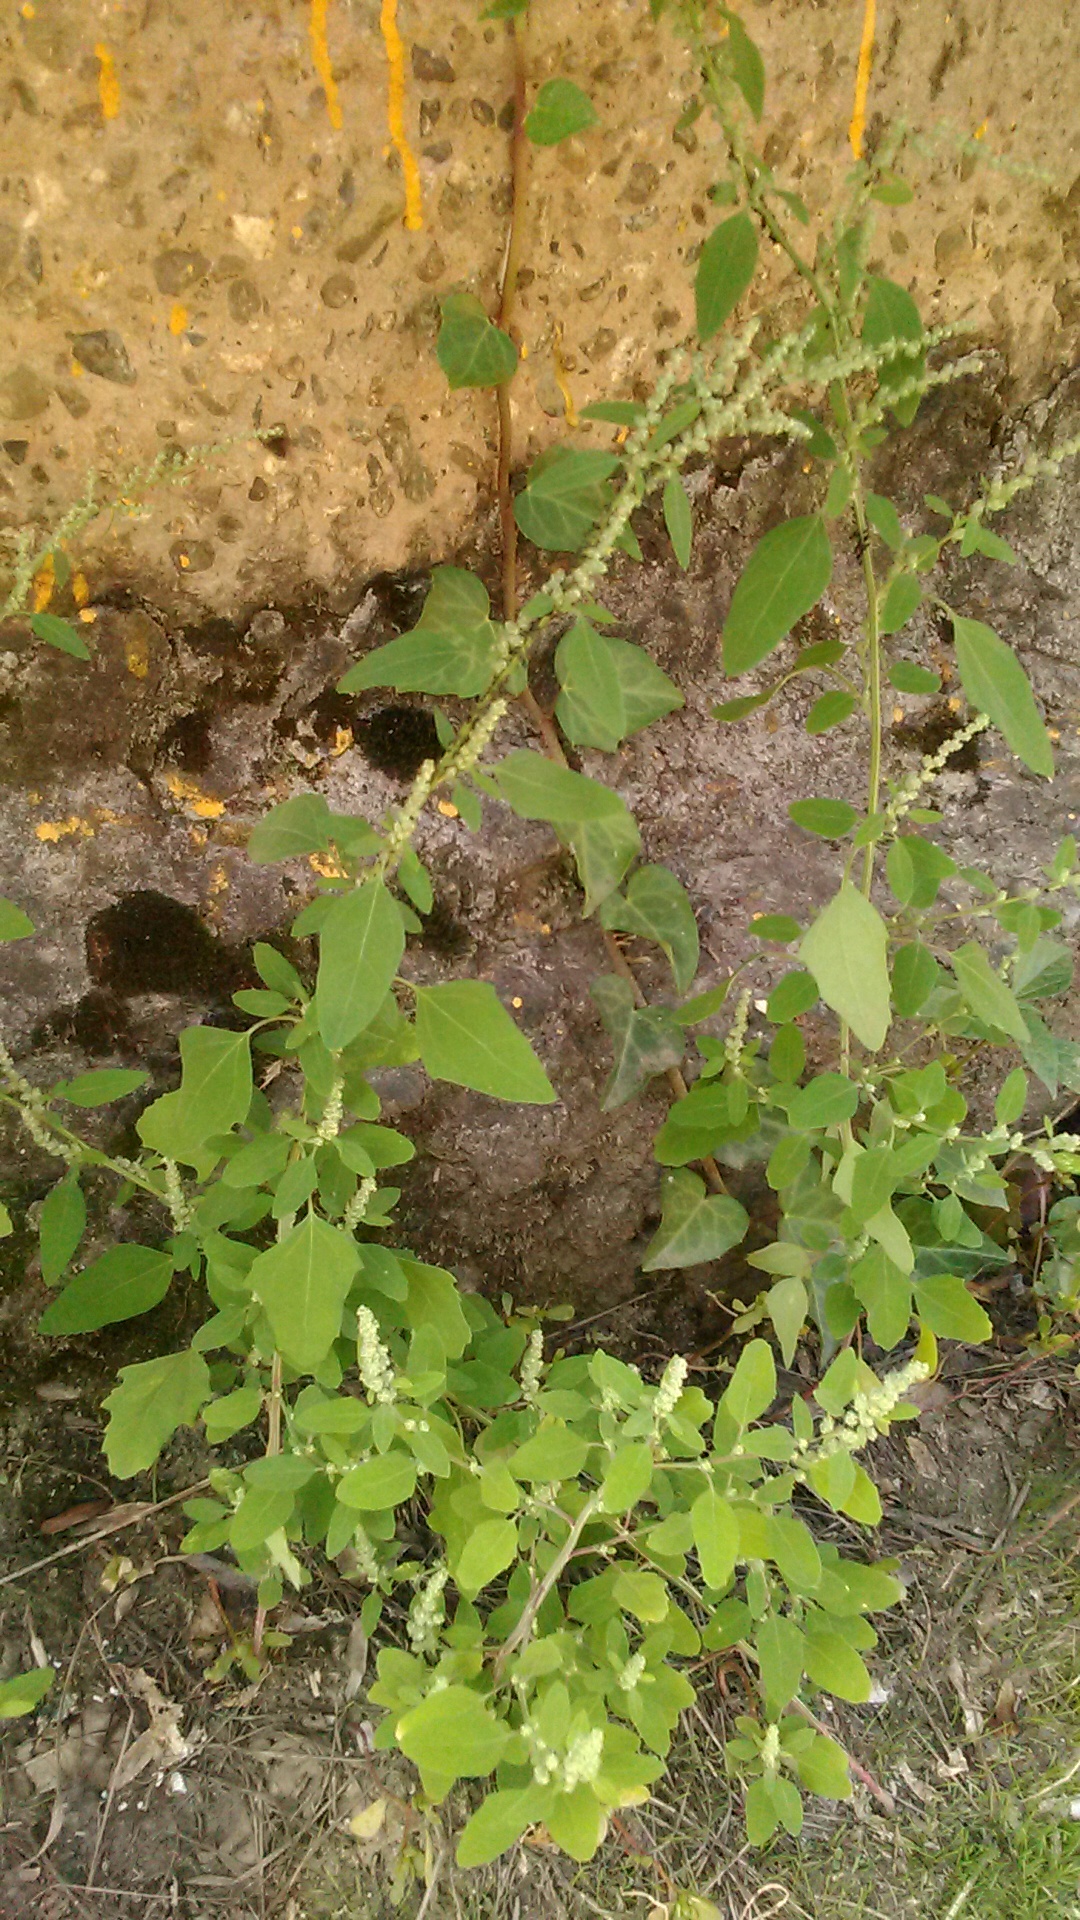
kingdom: Plantae
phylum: Tracheophyta
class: Magnoliopsida
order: Caryophyllales
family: Amaranthaceae
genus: Chenopodium
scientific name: Chenopodium album
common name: Fat-hen
